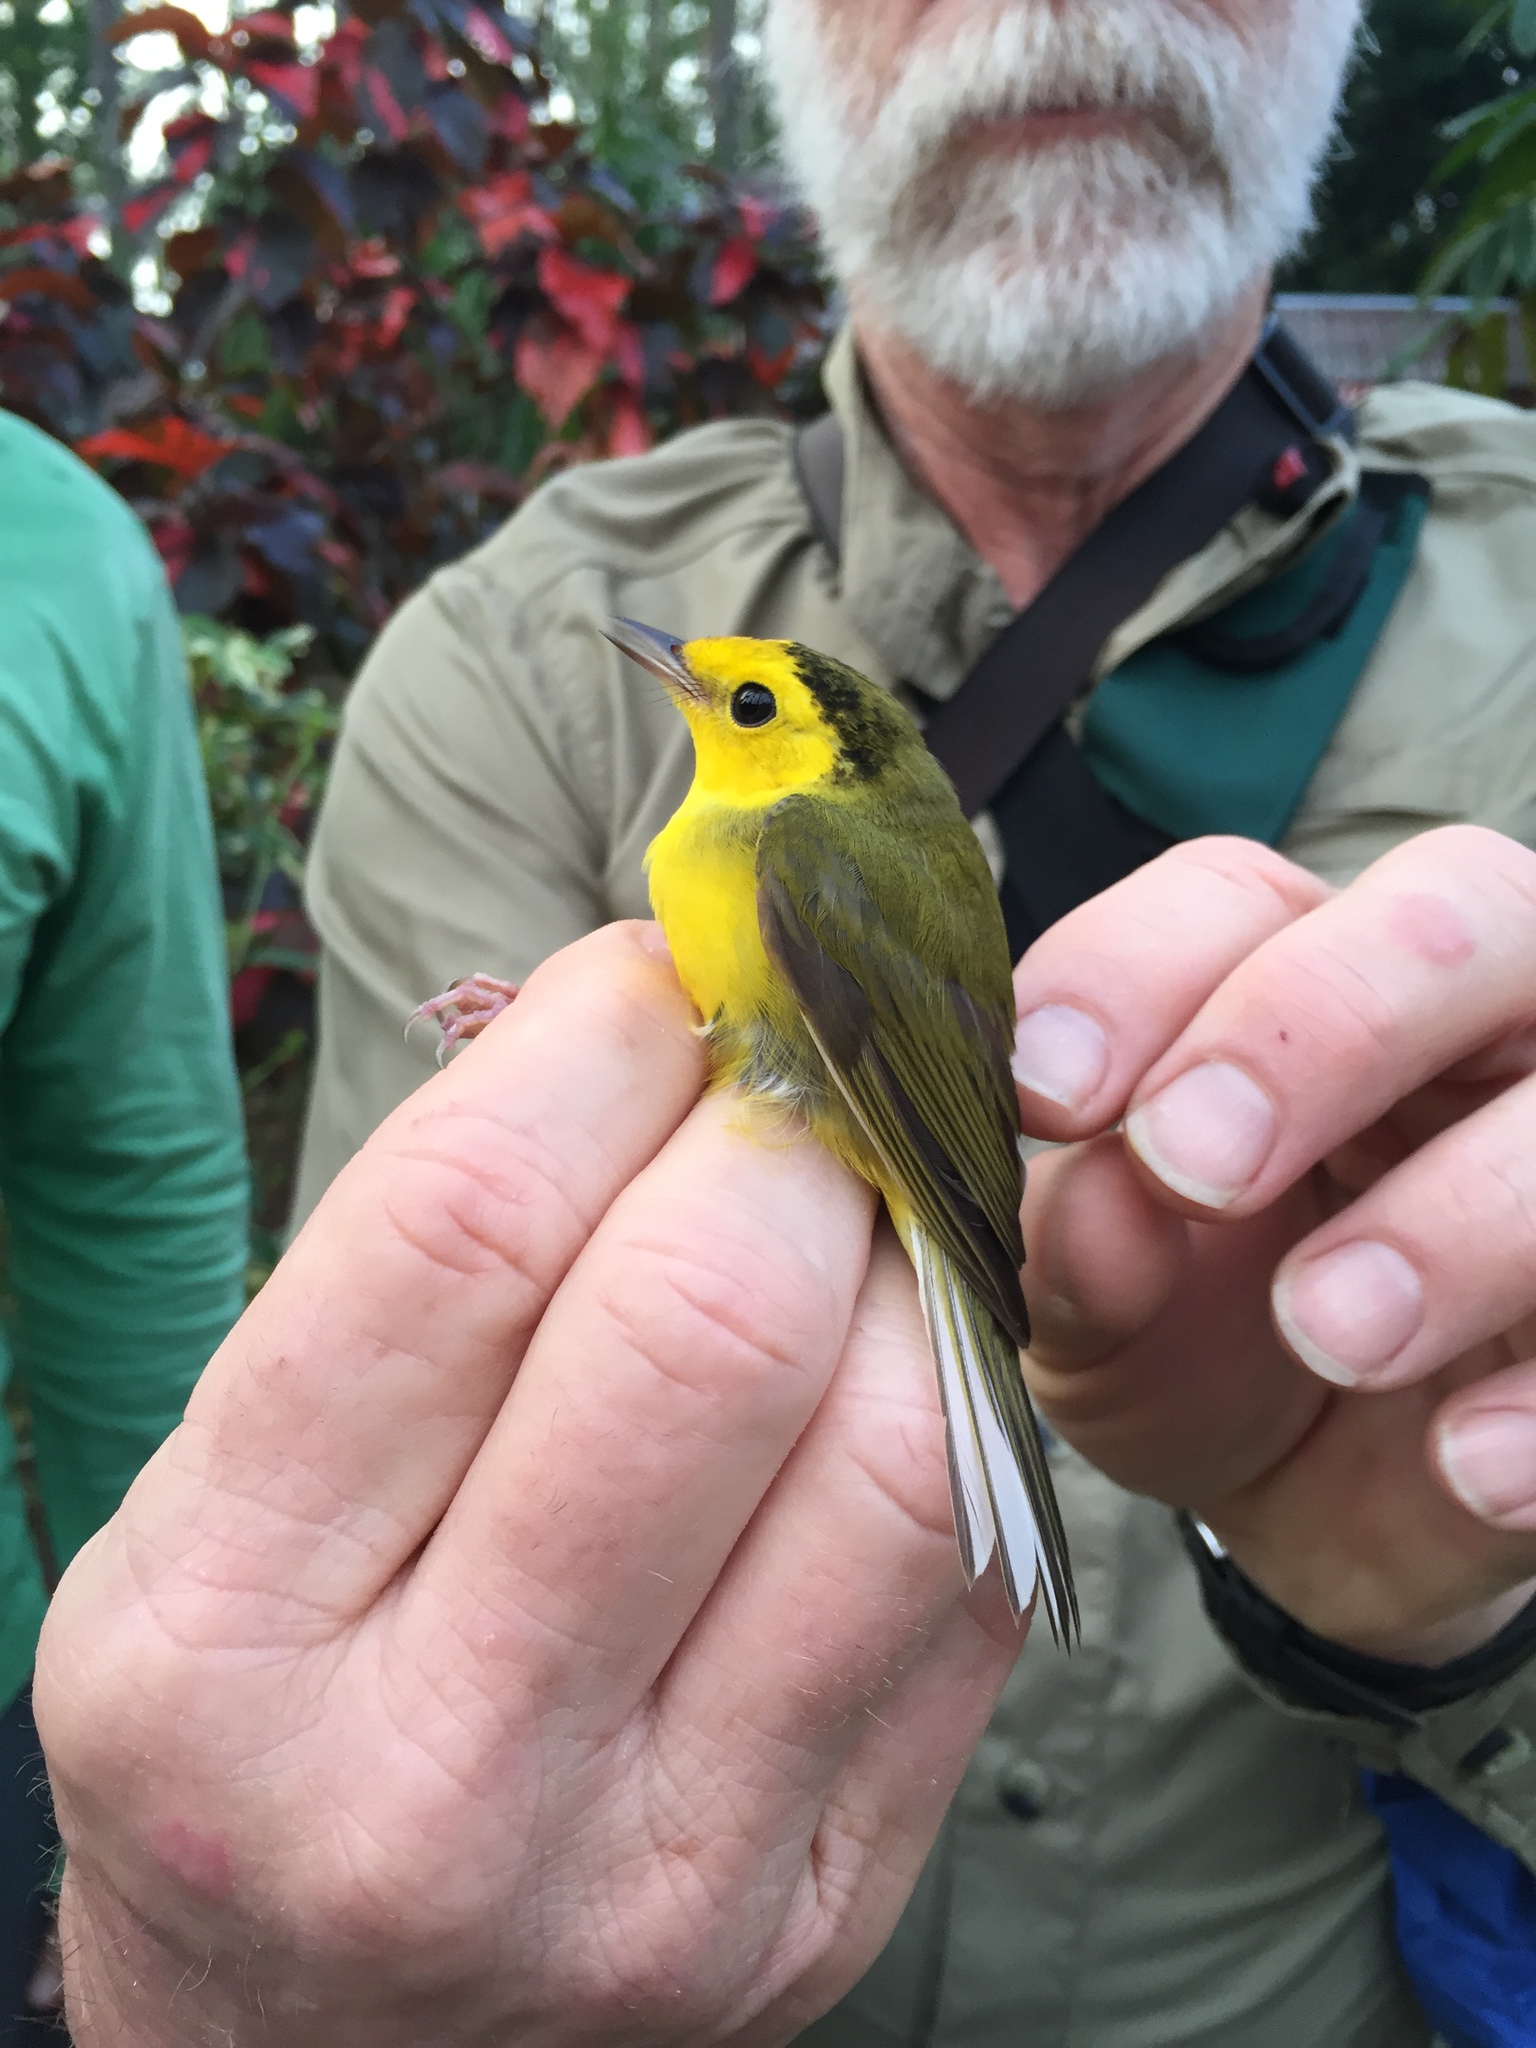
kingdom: Animalia
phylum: Chordata
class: Aves
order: Passeriformes
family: Parulidae
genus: Setophaga
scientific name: Setophaga citrina
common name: Hooded warbler
